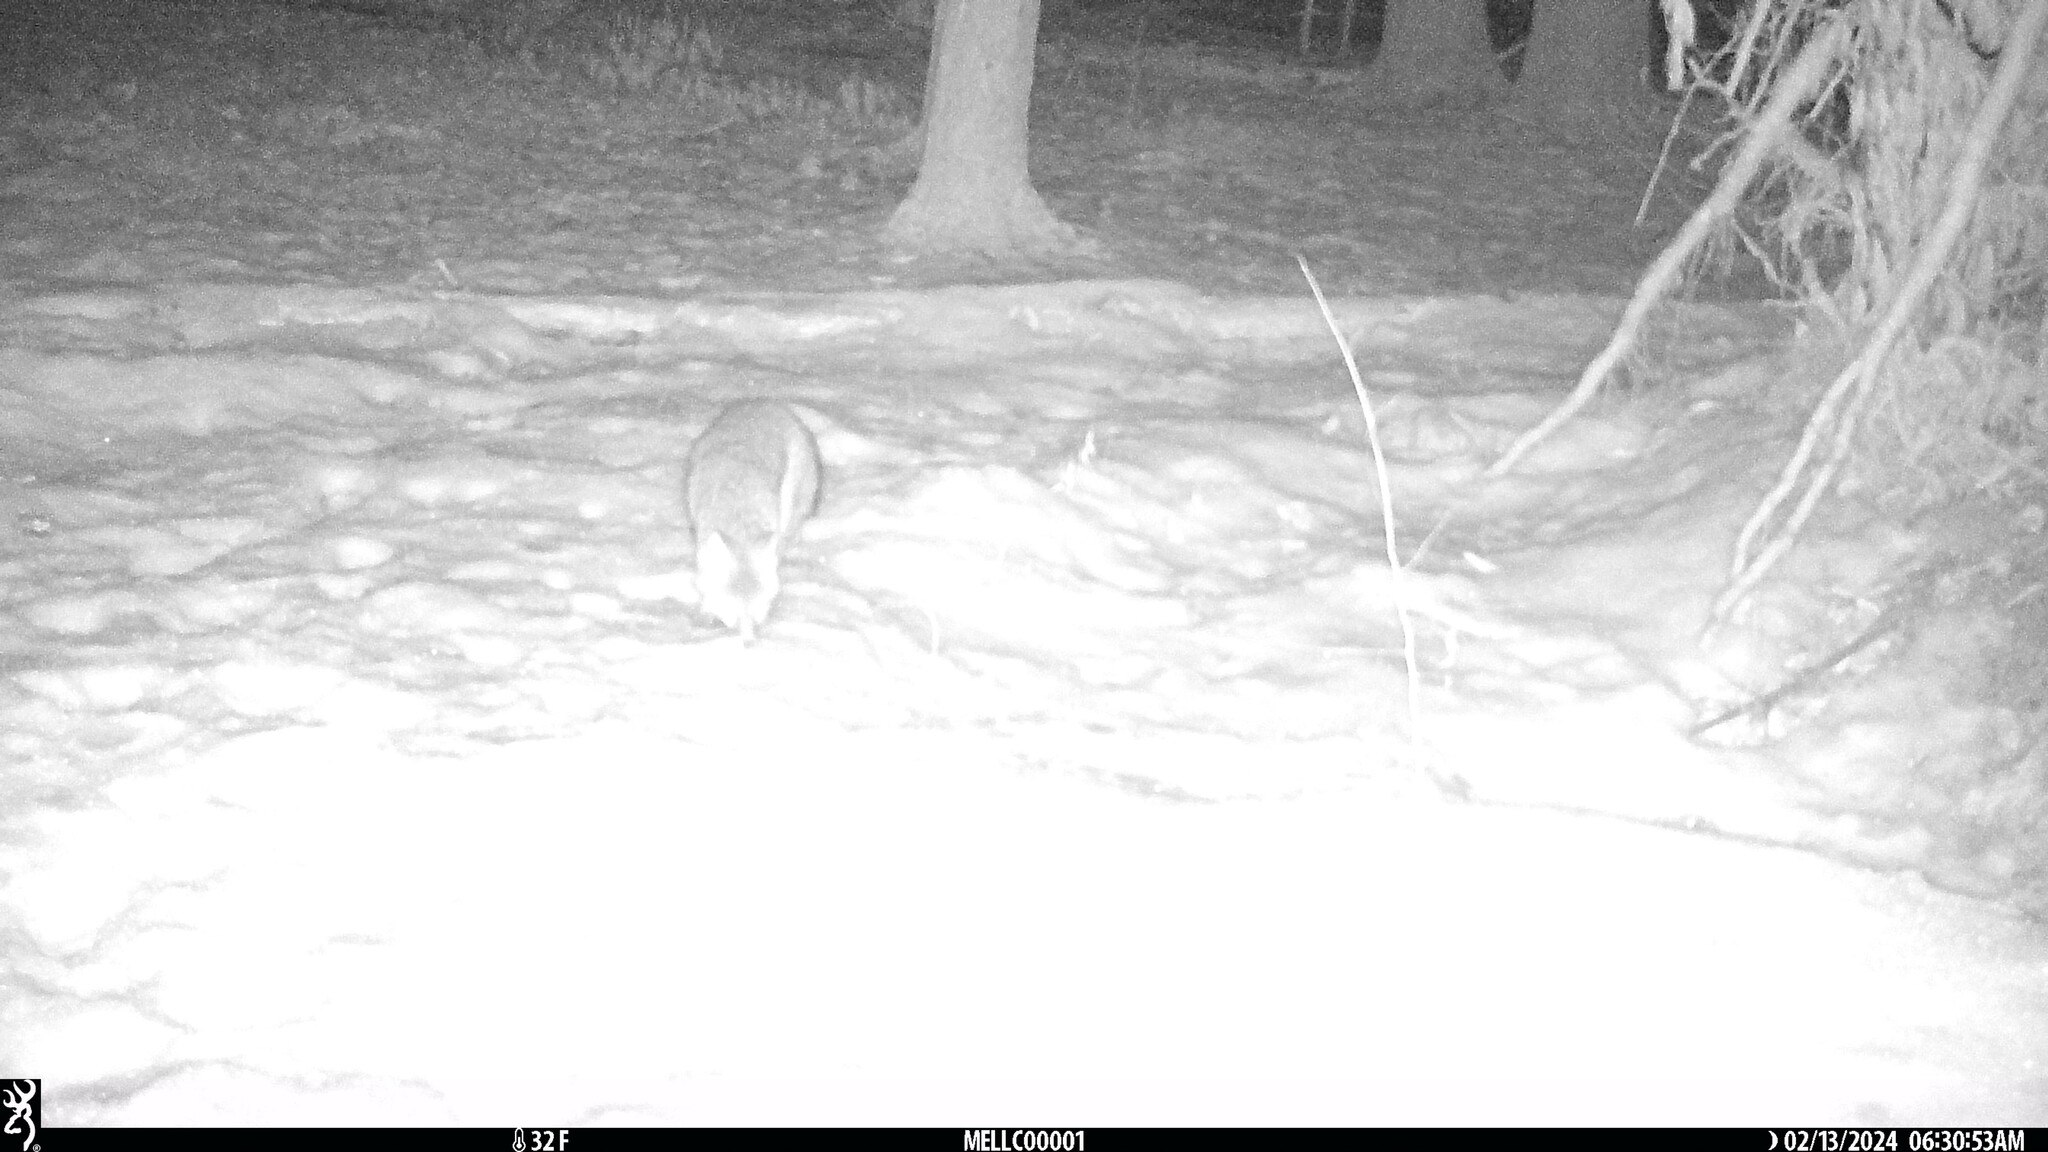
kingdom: Animalia
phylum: Chordata
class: Mammalia
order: Carnivora
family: Canidae
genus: Urocyon
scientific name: Urocyon cinereoargenteus
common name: Gray fox
